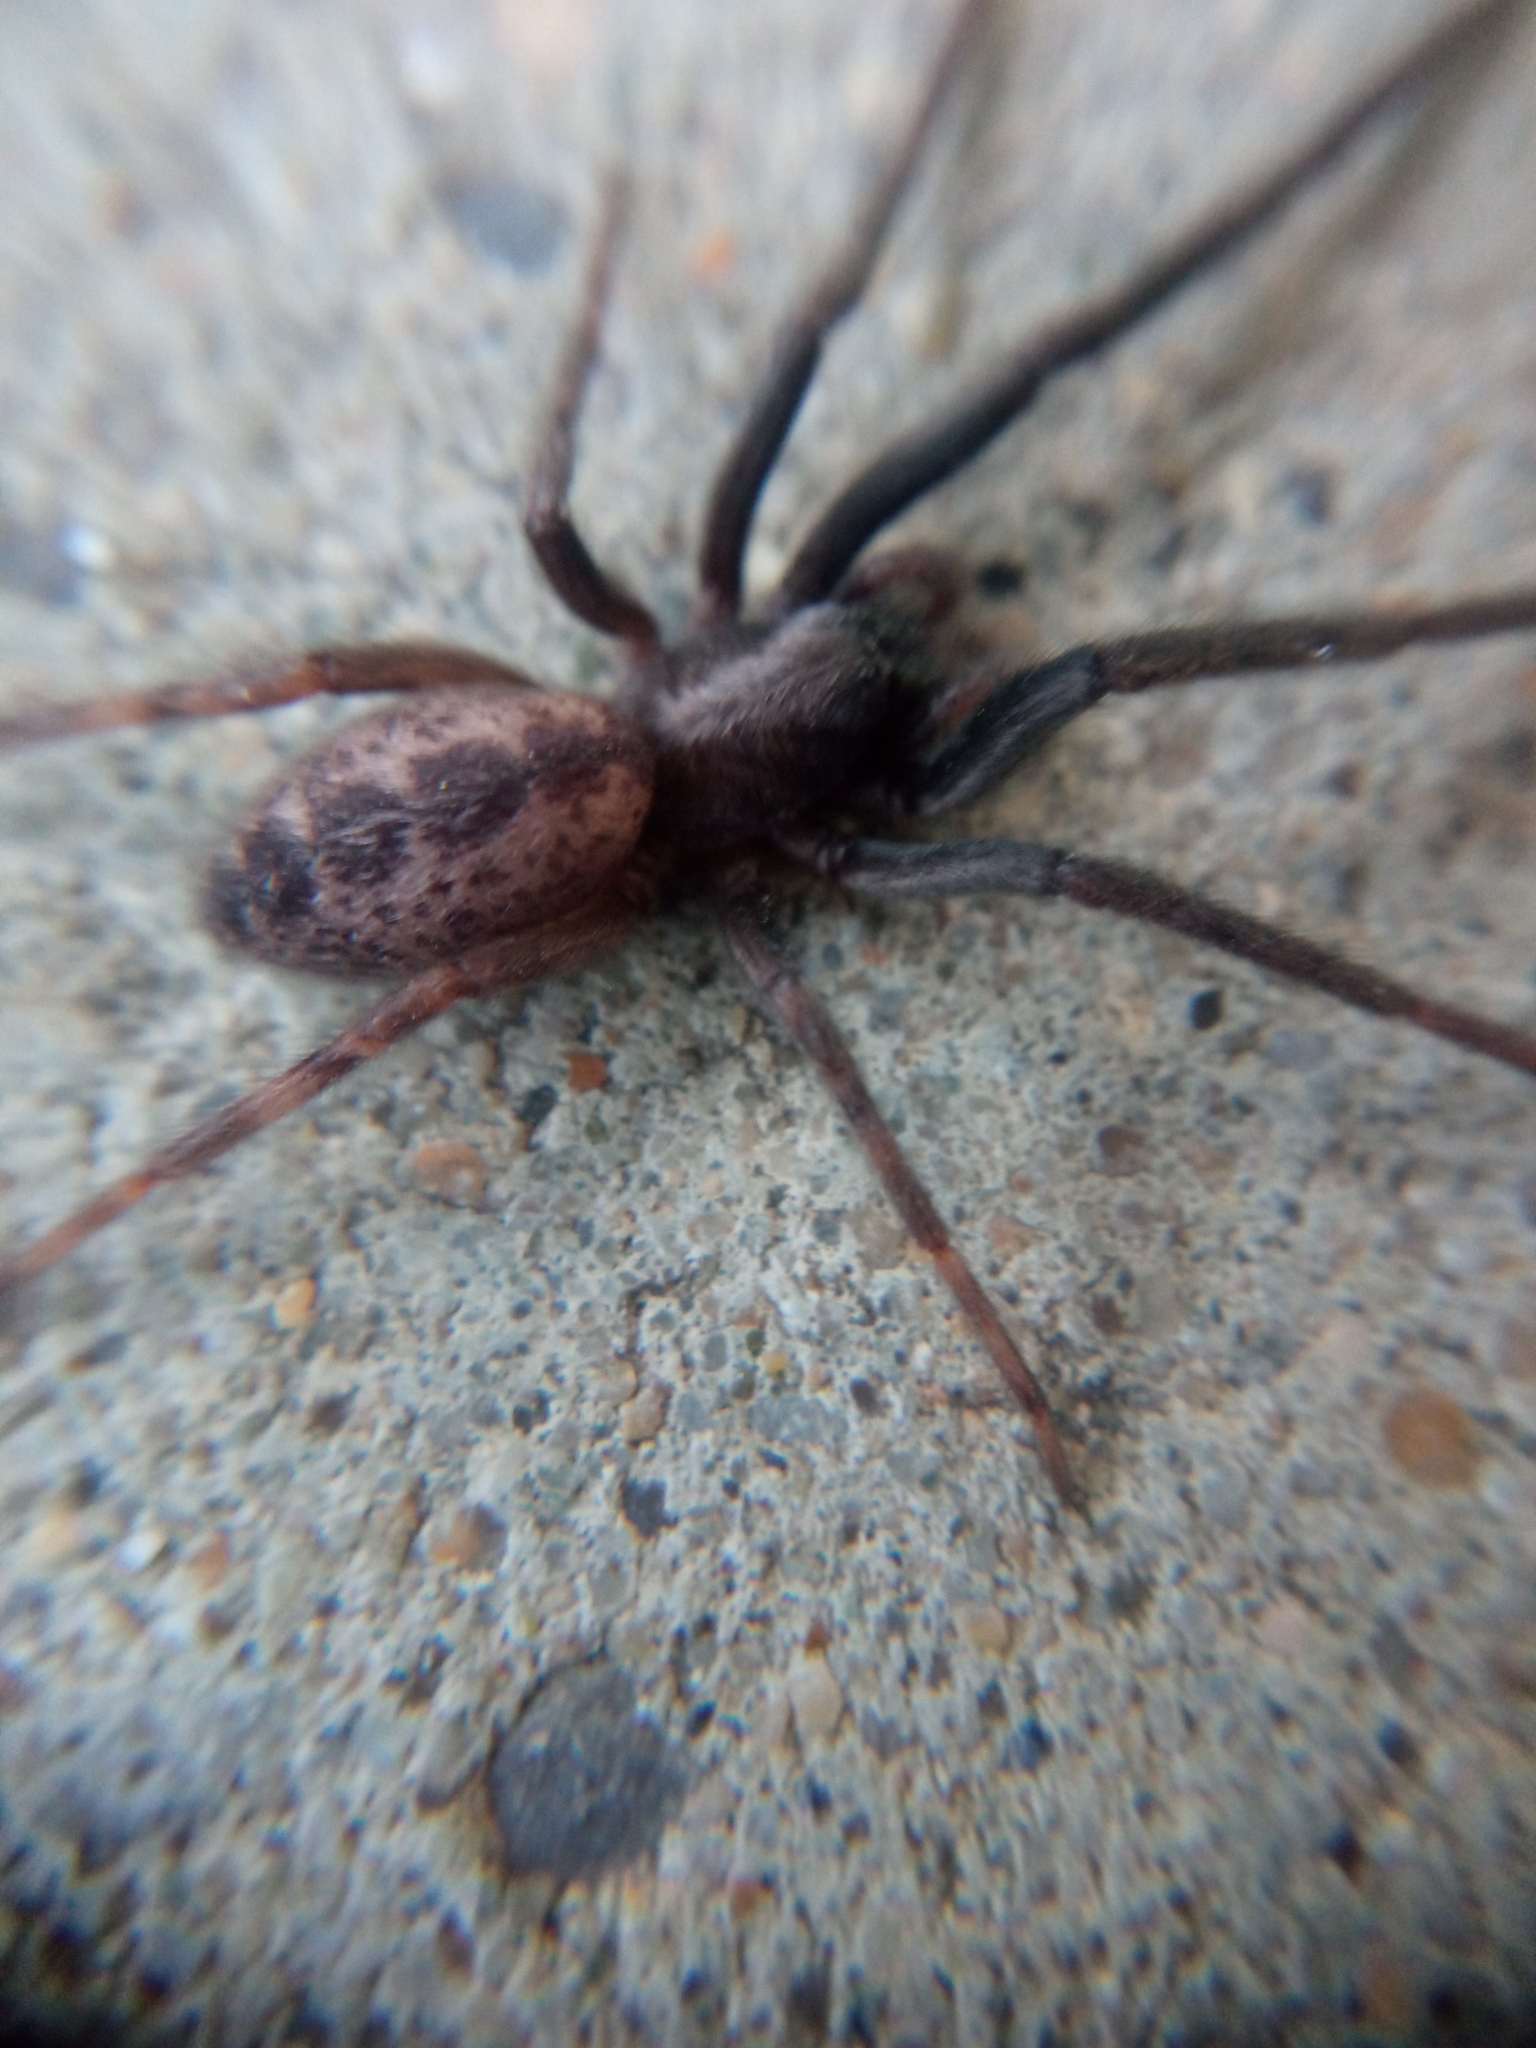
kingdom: Animalia
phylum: Arthropoda
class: Arachnida
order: Araneae
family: Segestriidae
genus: Segestria
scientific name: Segestria florentina
